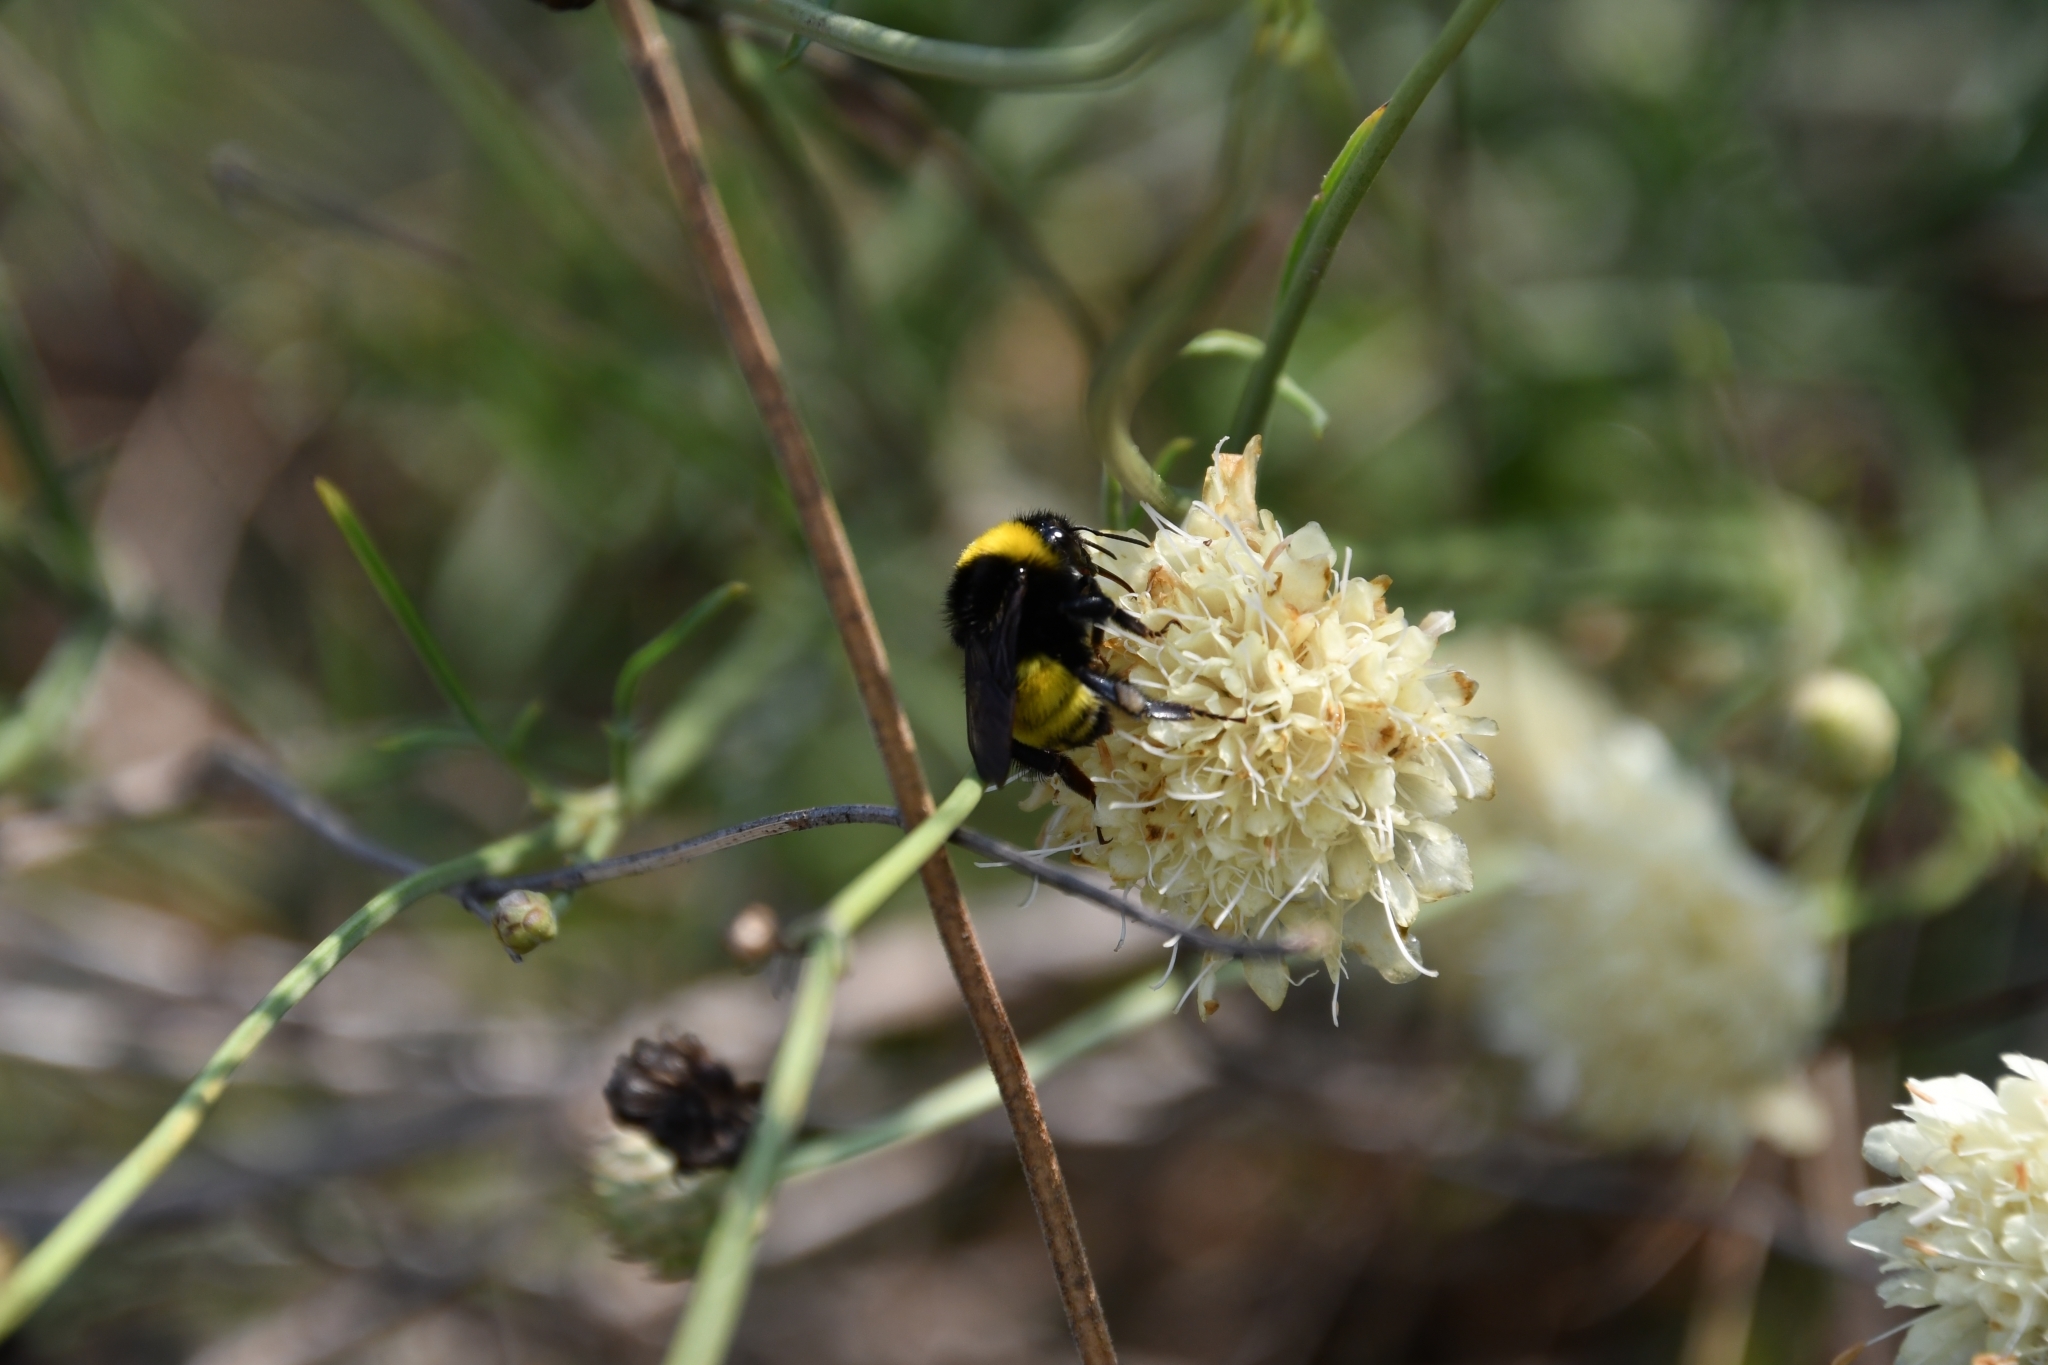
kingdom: Animalia
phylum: Arthropoda
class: Insecta
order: Hymenoptera
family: Apidae
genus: Bombus
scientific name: Bombus zonatus
